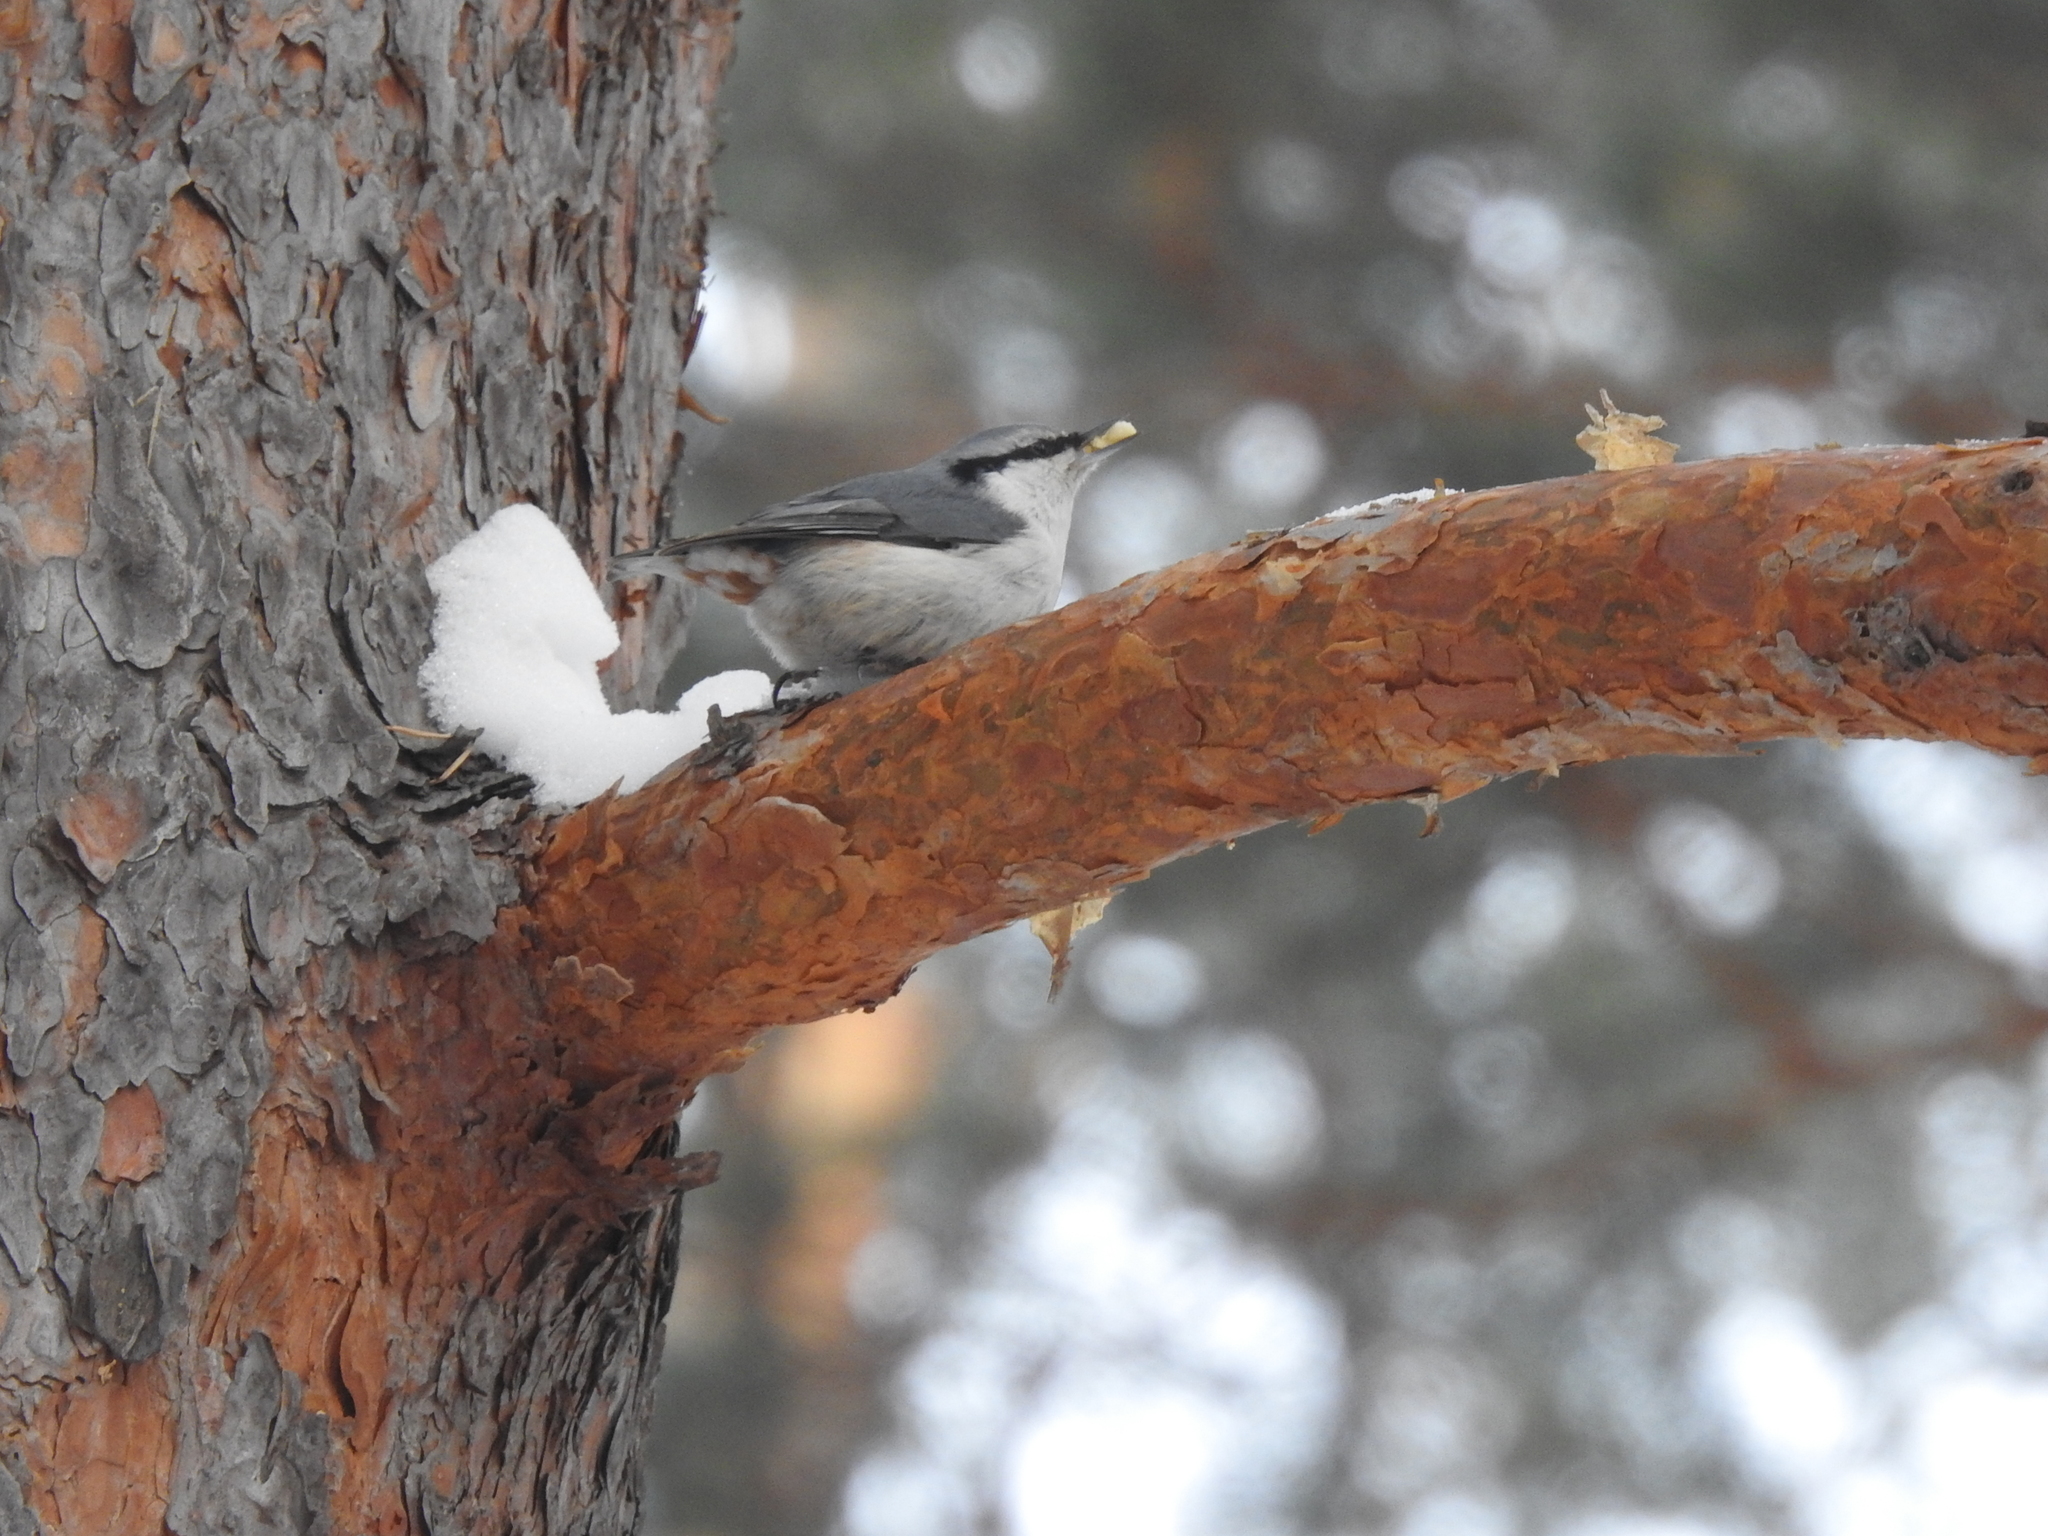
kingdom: Animalia
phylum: Chordata
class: Aves
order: Passeriformes
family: Sittidae
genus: Sitta
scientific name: Sitta europaea
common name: Eurasian nuthatch
